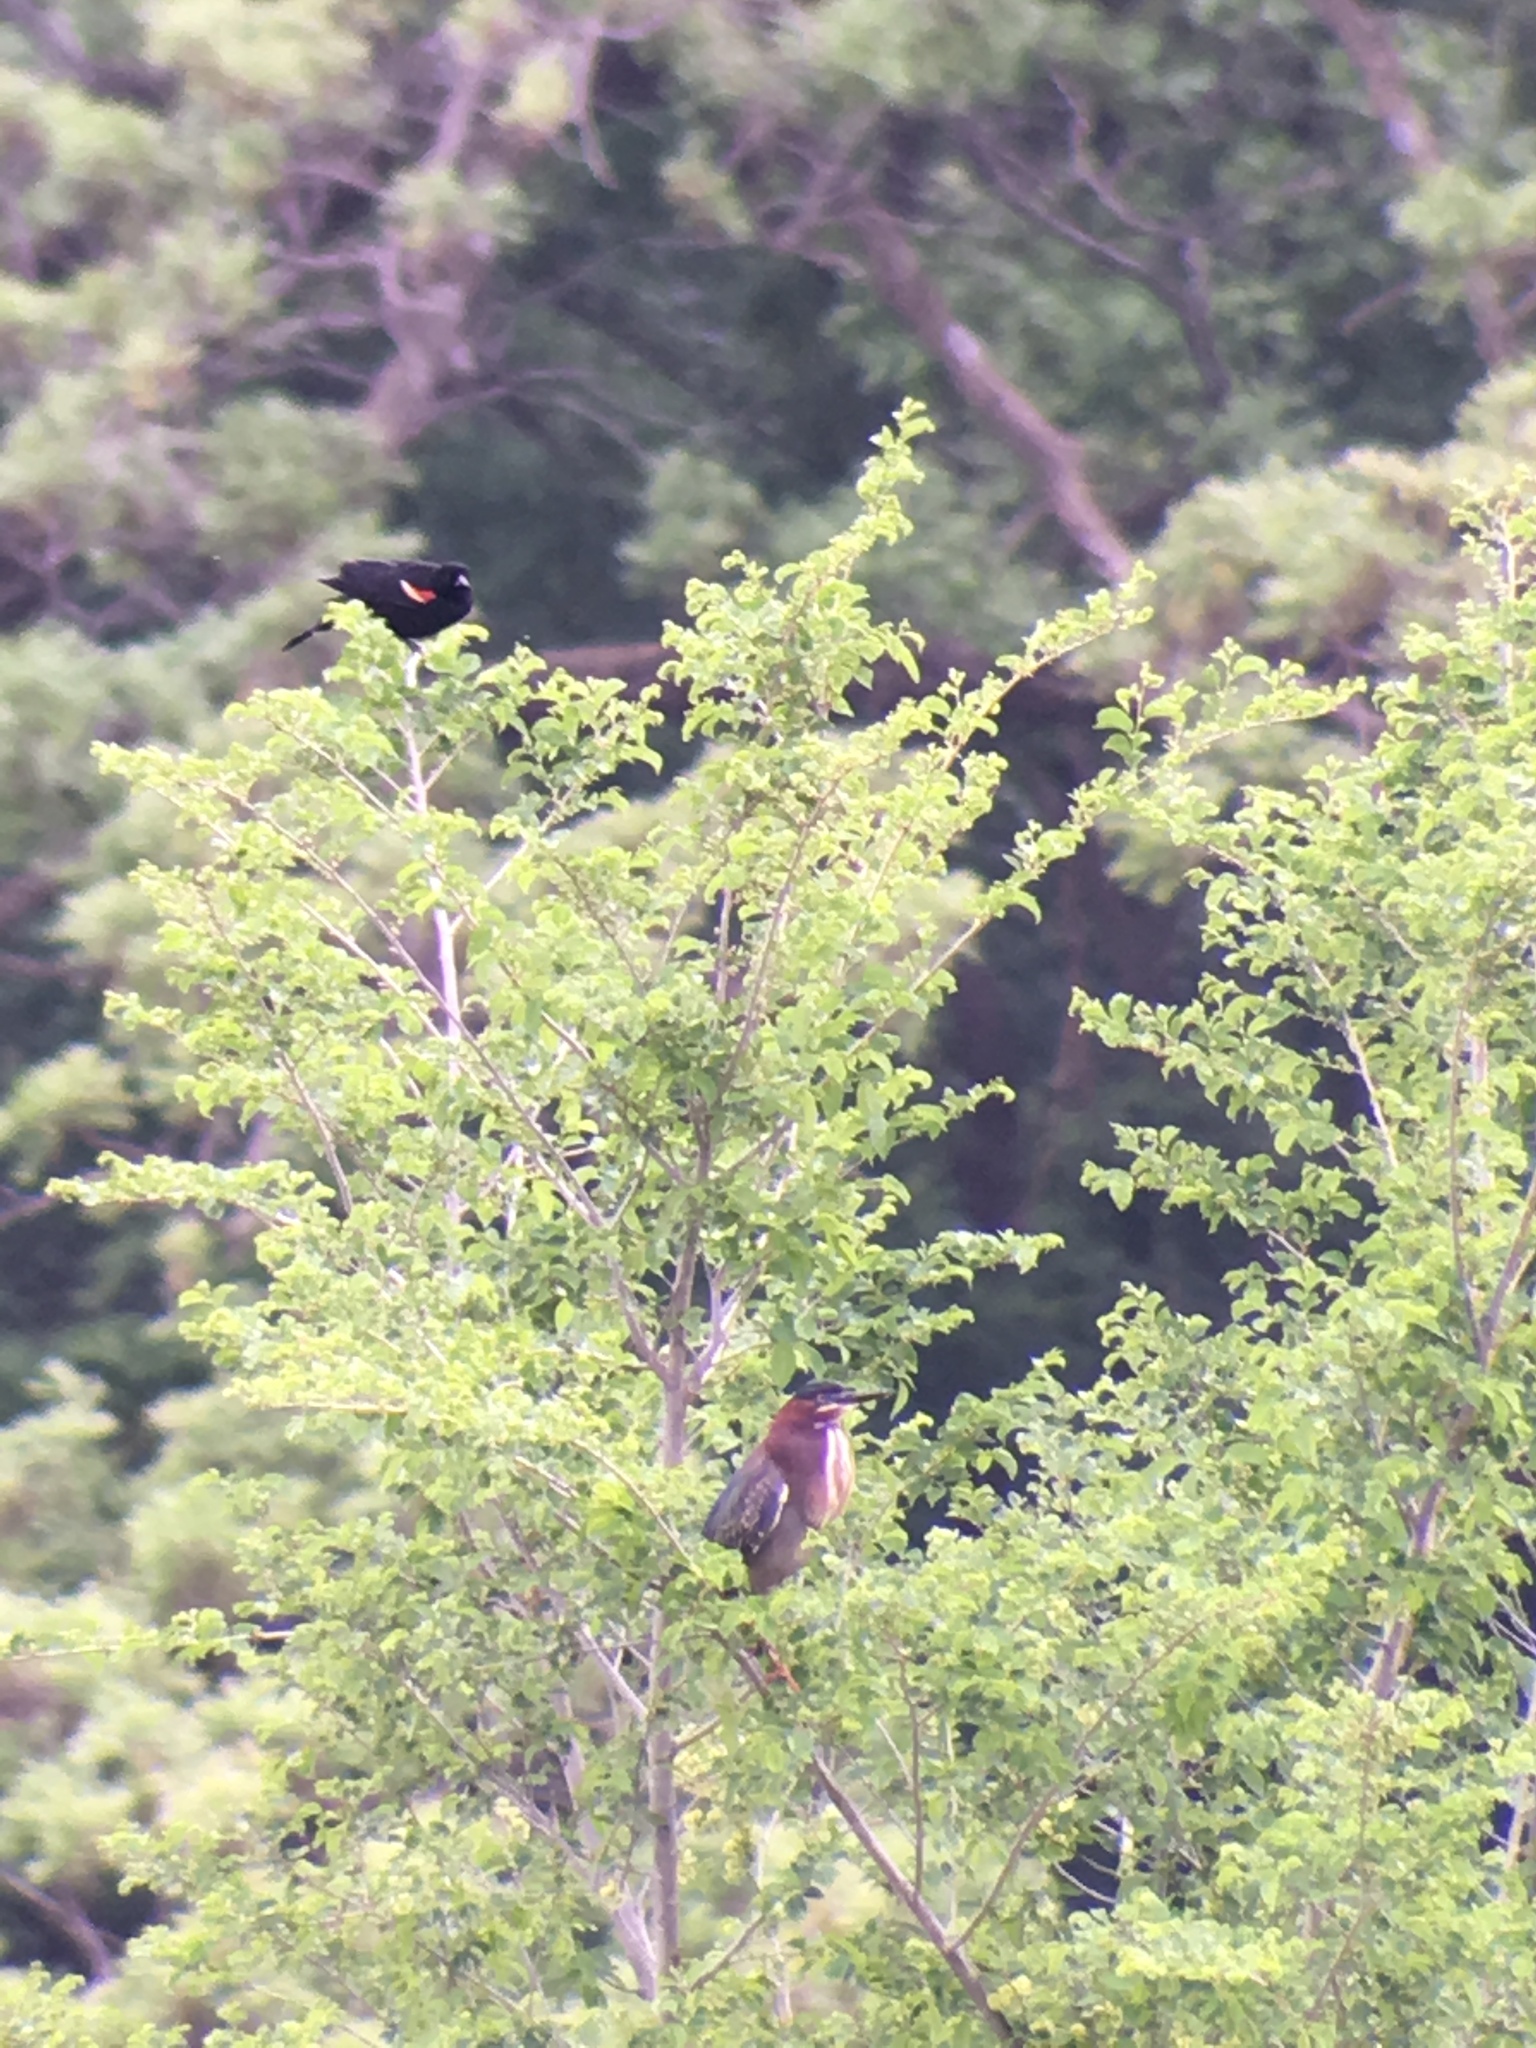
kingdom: Animalia
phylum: Chordata
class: Aves
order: Pelecaniformes
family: Ardeidae
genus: Butorides
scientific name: Butorides virescens
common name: Green heron
